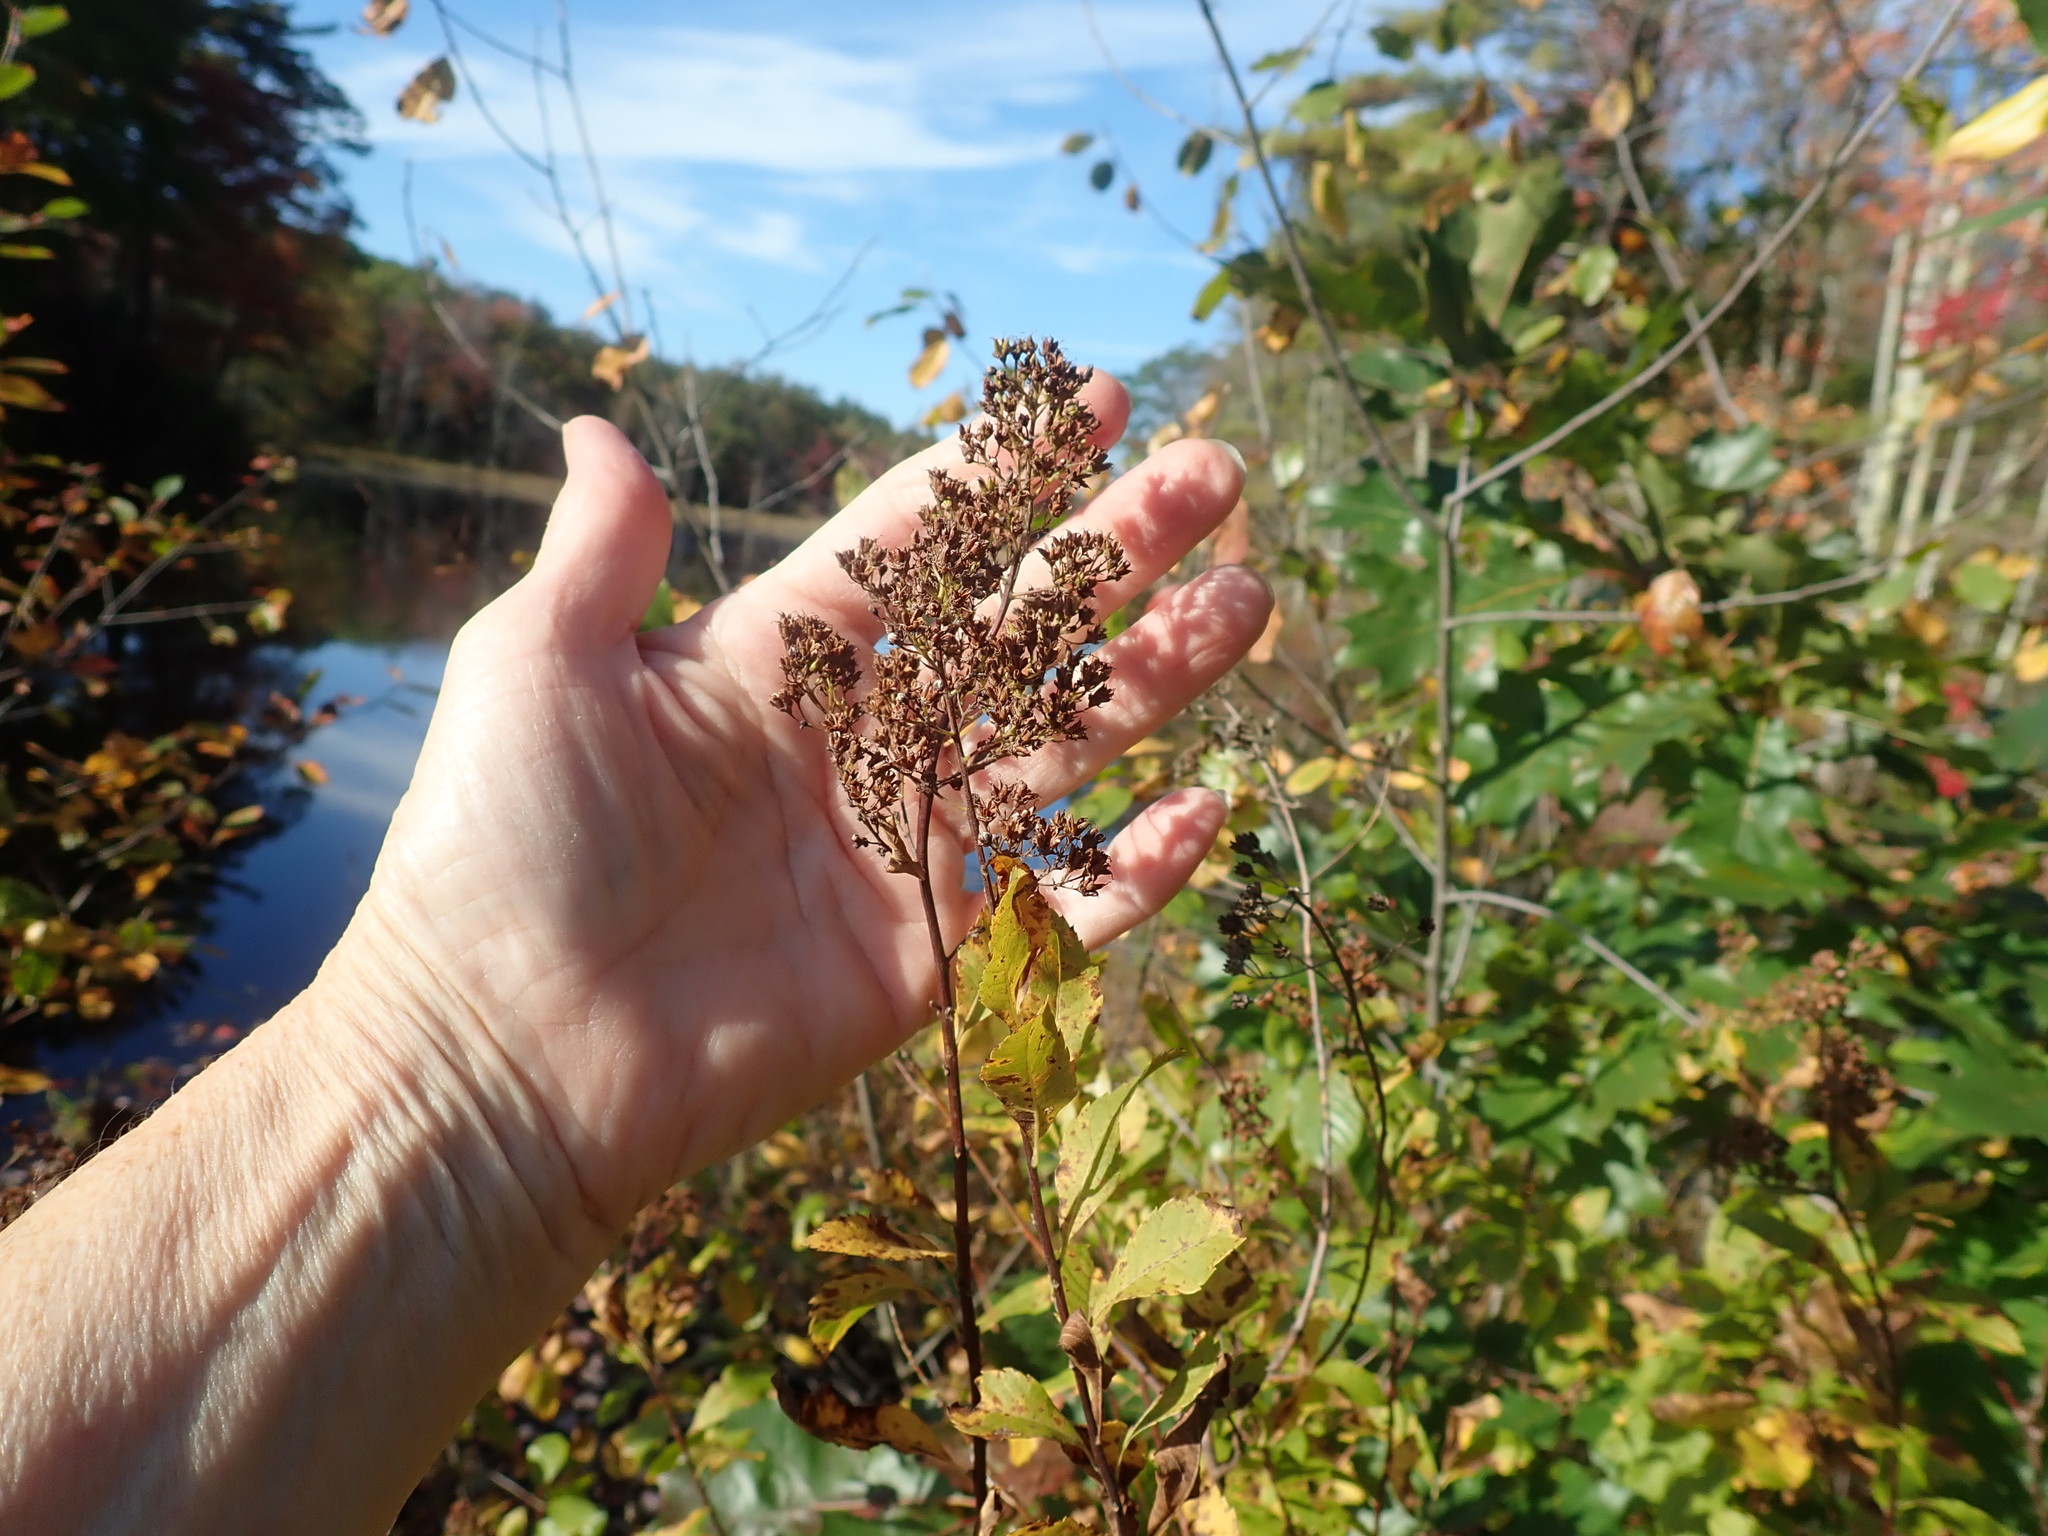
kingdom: Plantae
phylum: Tracheophyta
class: Magnoliopsida
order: Rosales
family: Rosaceae
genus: Spiraea
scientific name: Spiraea alba
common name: Pale bridewort
